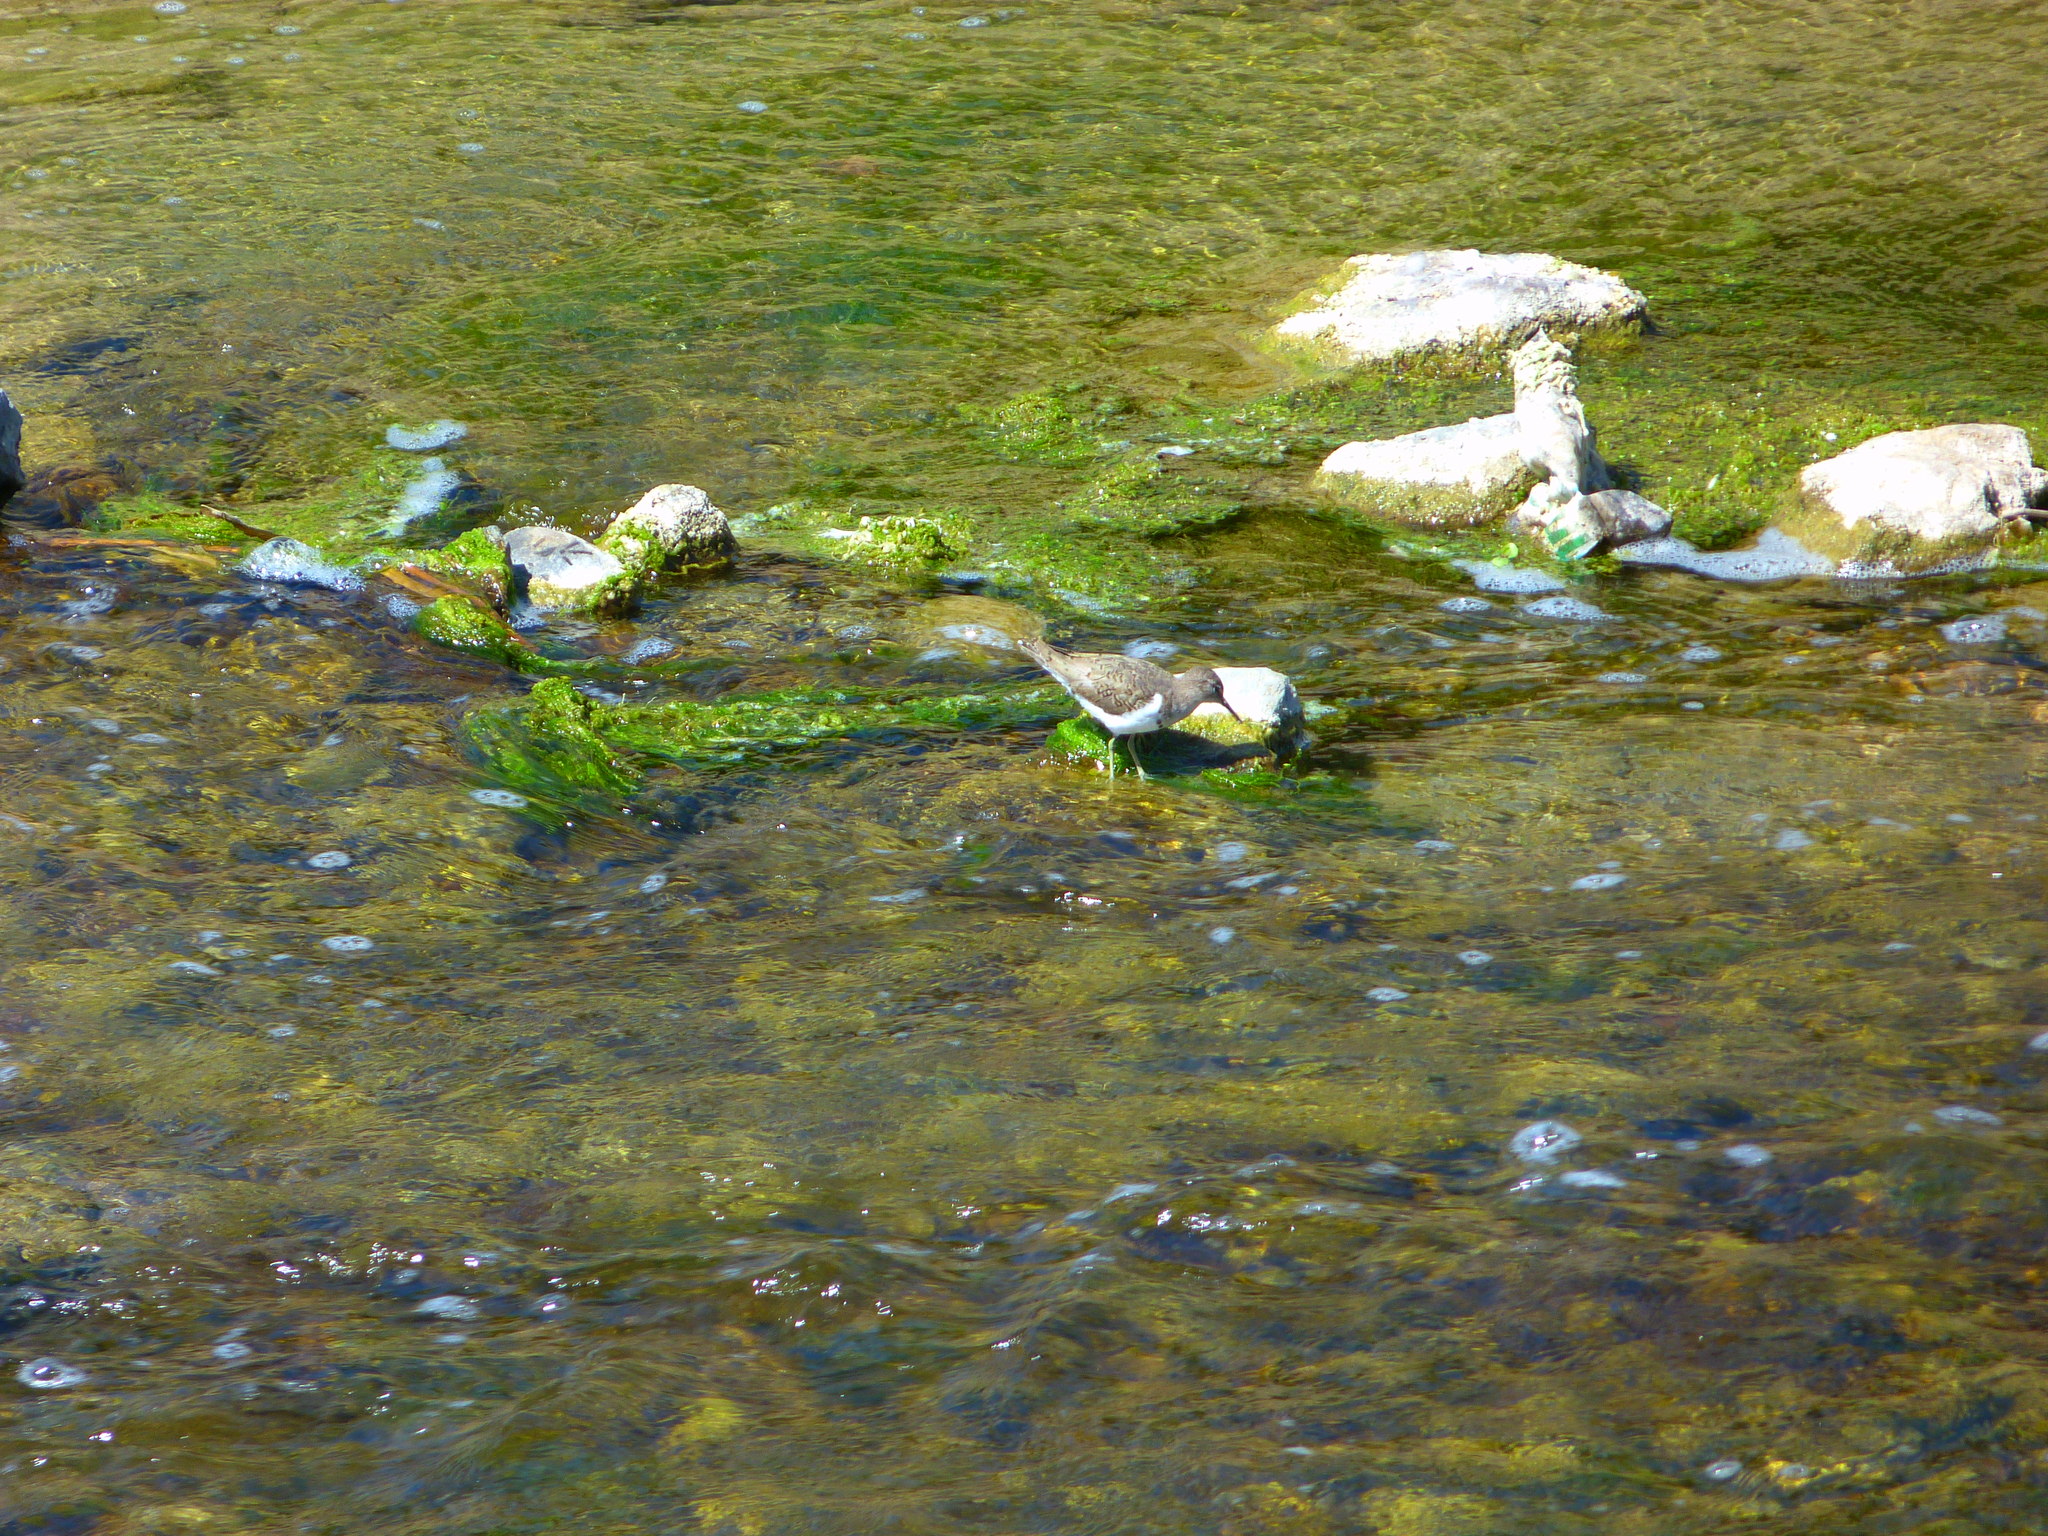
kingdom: Animalia
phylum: Chordata
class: Aves
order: Charadriiformes
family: Scolopacidae
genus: Actitis
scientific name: Actitis macularius
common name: Spotted sandpiper
